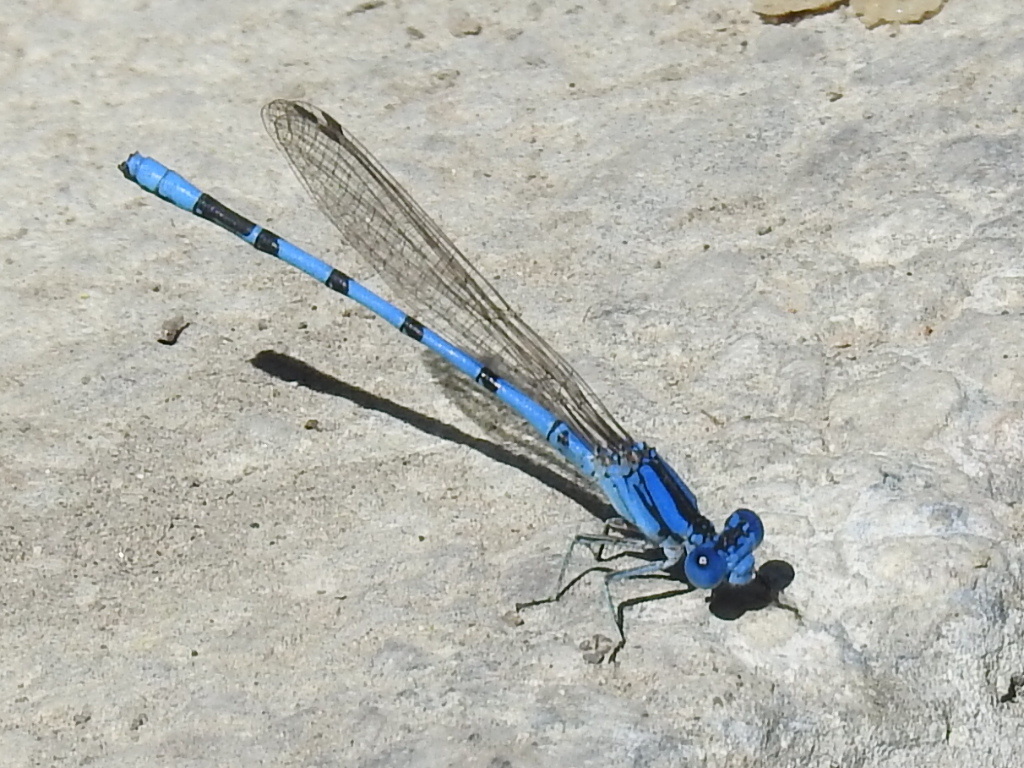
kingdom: Animalia
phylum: Arthropoda
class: Insecta
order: Odonata
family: Coenagrionidae
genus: Argia
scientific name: Argia nahuana
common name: Aztec dancer
